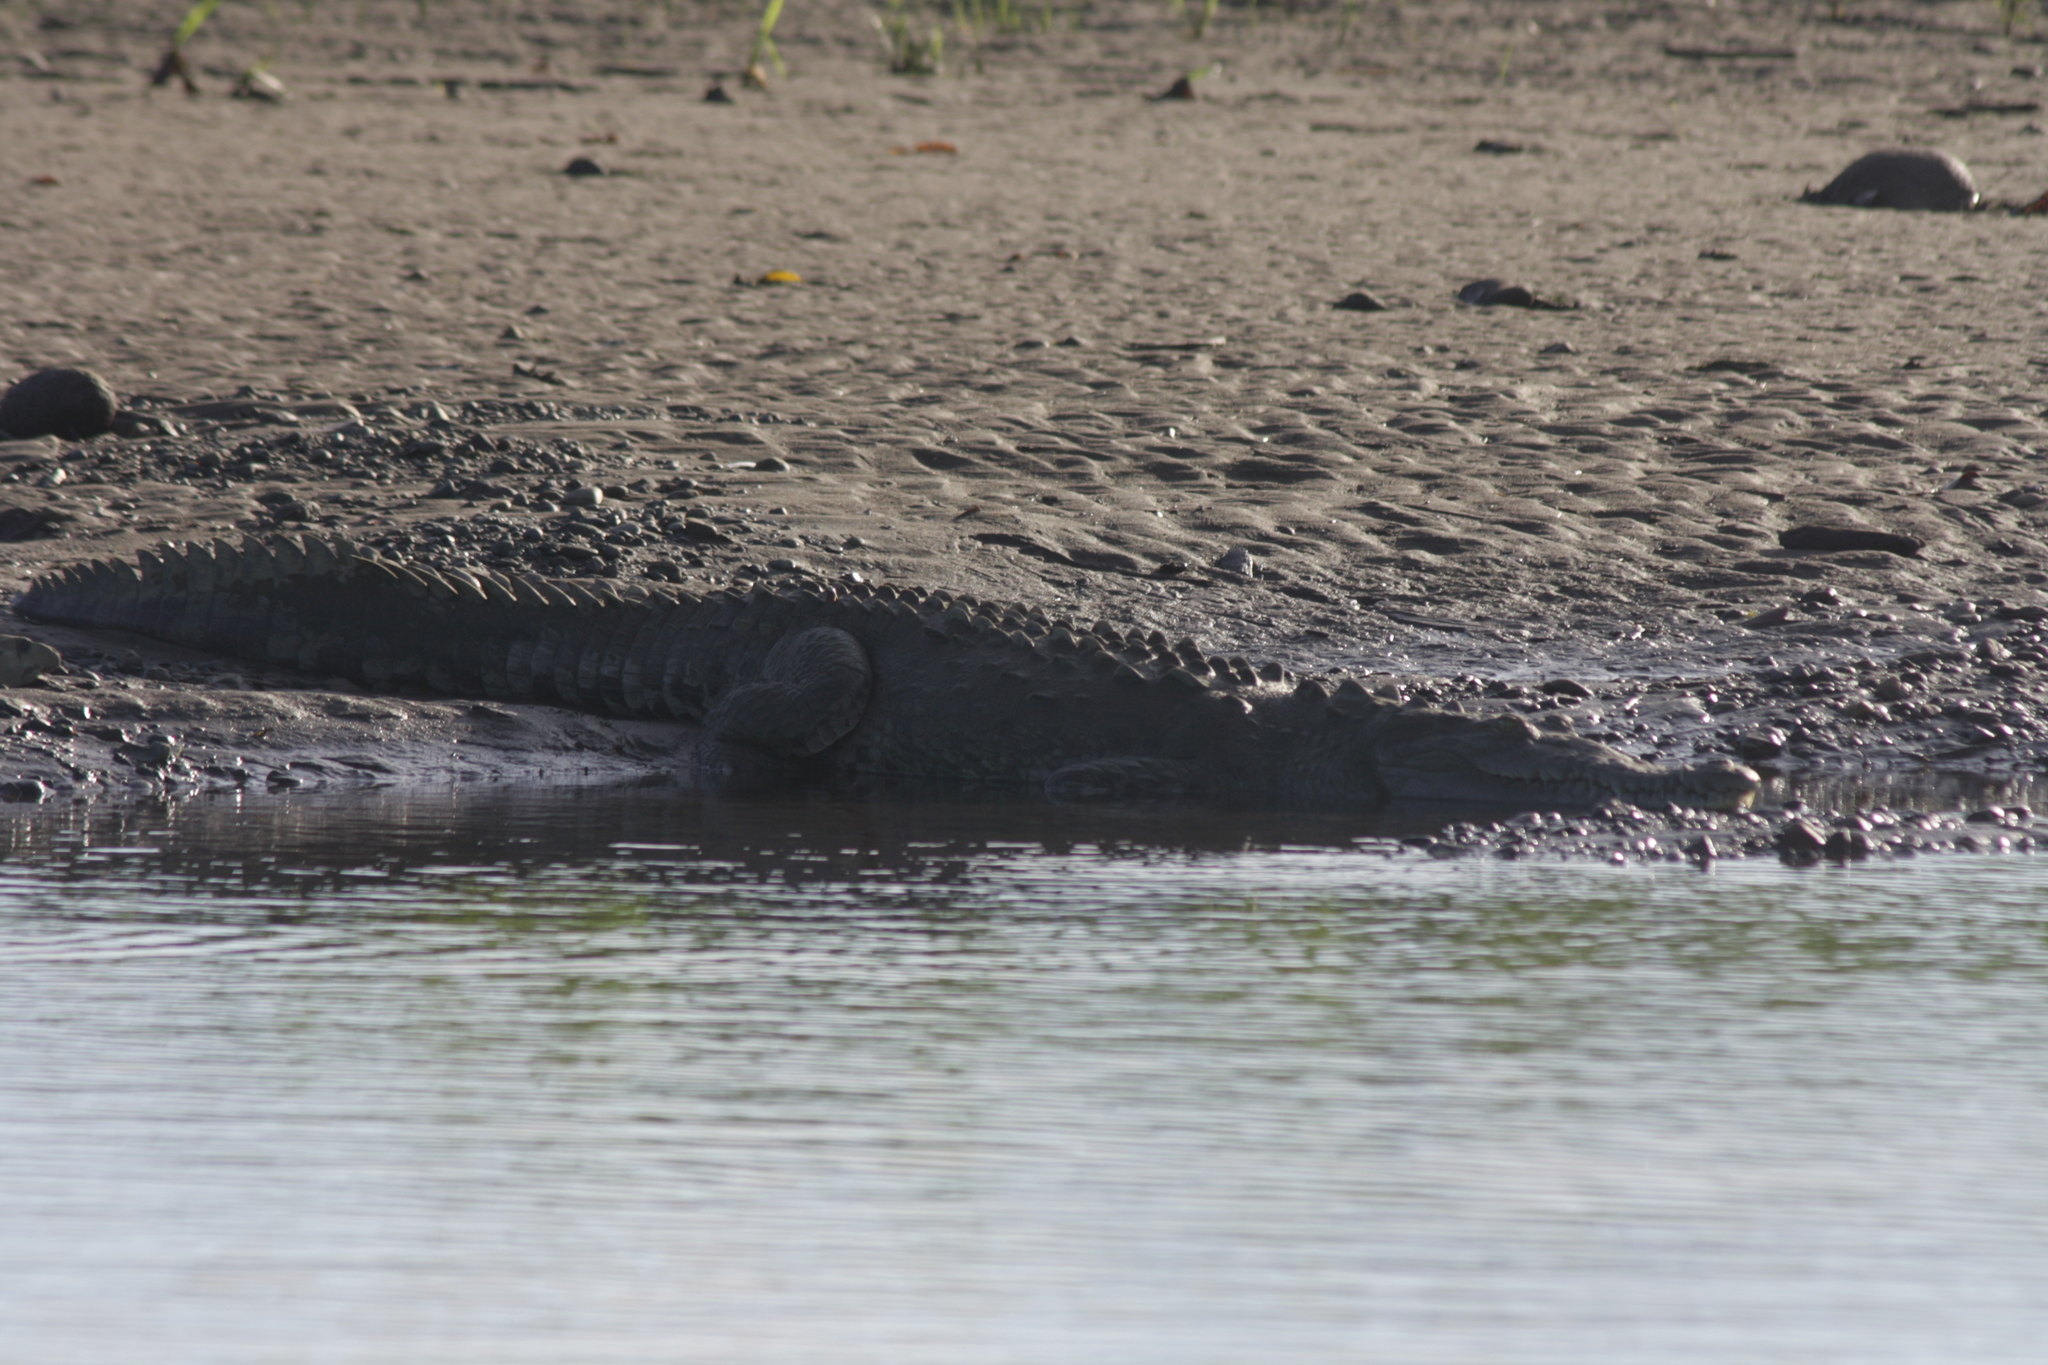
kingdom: Animalia
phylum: Chordata
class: Crocodylia
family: Crocodylidae
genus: Crocodylus
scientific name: Crocodylus acutus
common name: American crocodile
